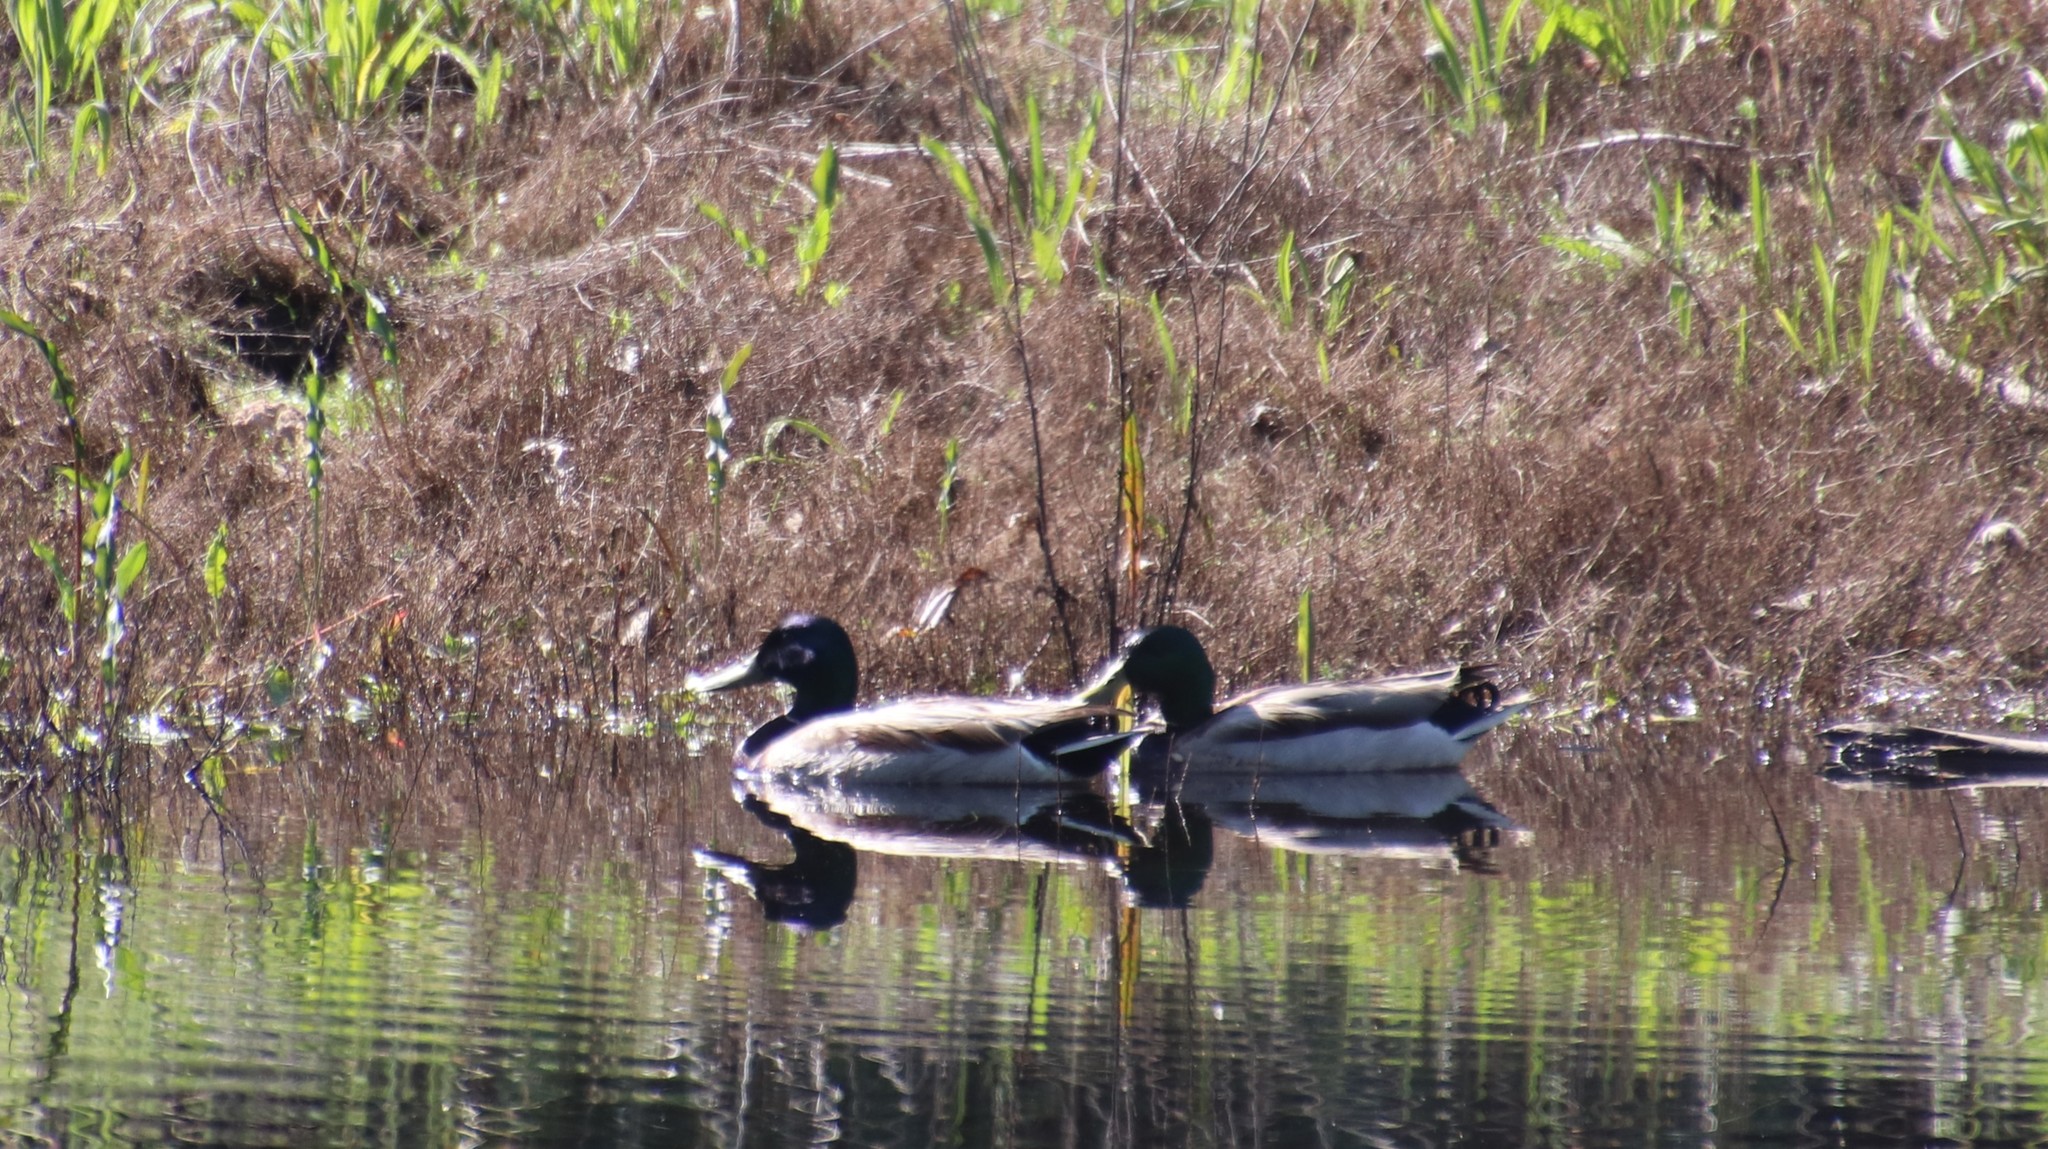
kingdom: Animalia
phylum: Chordata
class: Aves
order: Anseriformes
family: Anatidae
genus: Anas
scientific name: Anas platyrhynchos
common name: Mallard
